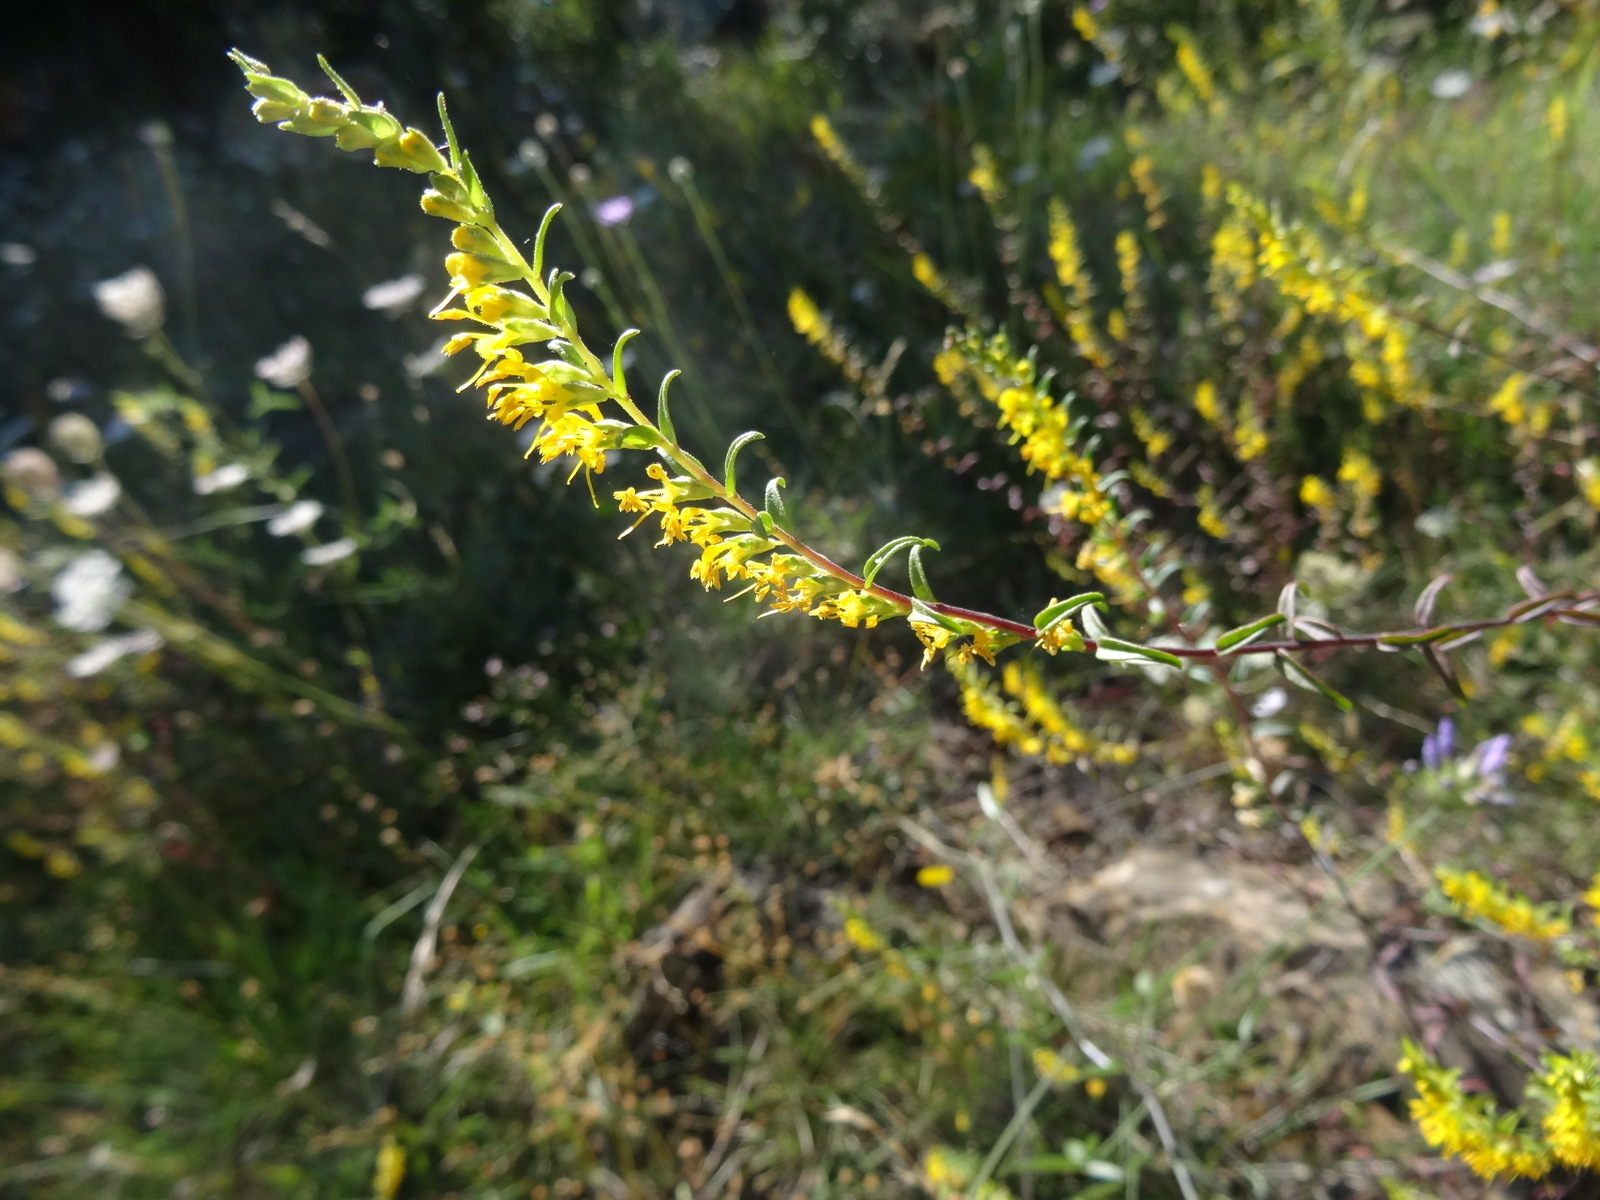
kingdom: Plantae
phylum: Tracheophyta
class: Magnoliopsida
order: Lamiales
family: Orobanchaceae
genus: Odontites
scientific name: Odontites luteus
